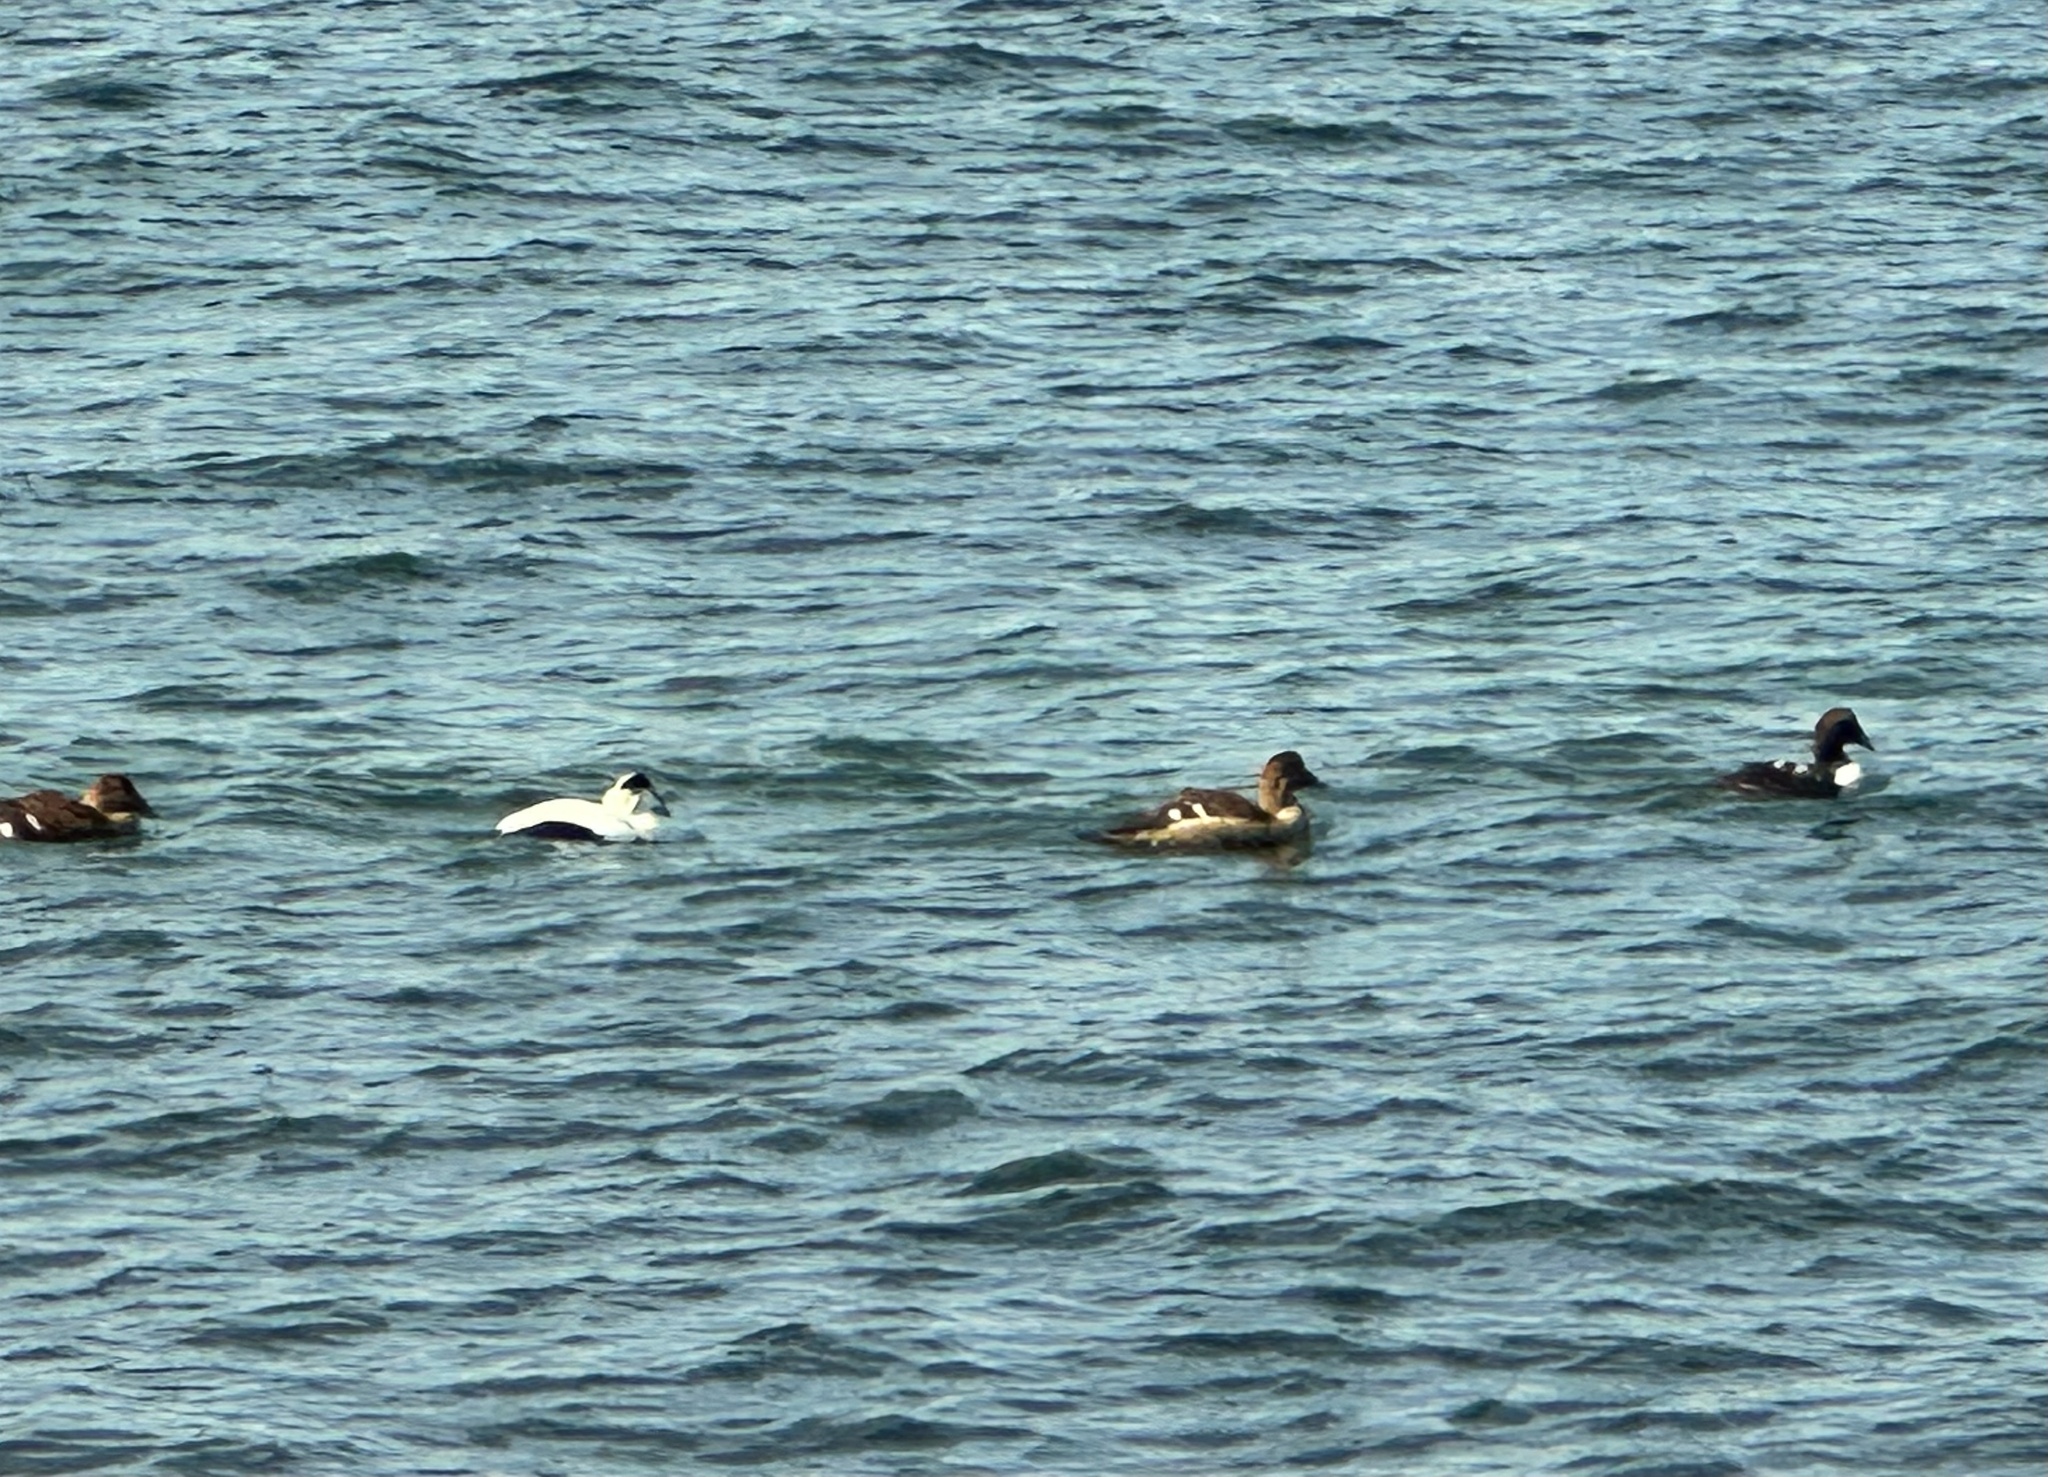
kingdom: Animalia
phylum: Chordata
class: Aves
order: Anseriformes
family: Anatidae
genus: Somateria
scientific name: Somateria mollissima
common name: Common eider
